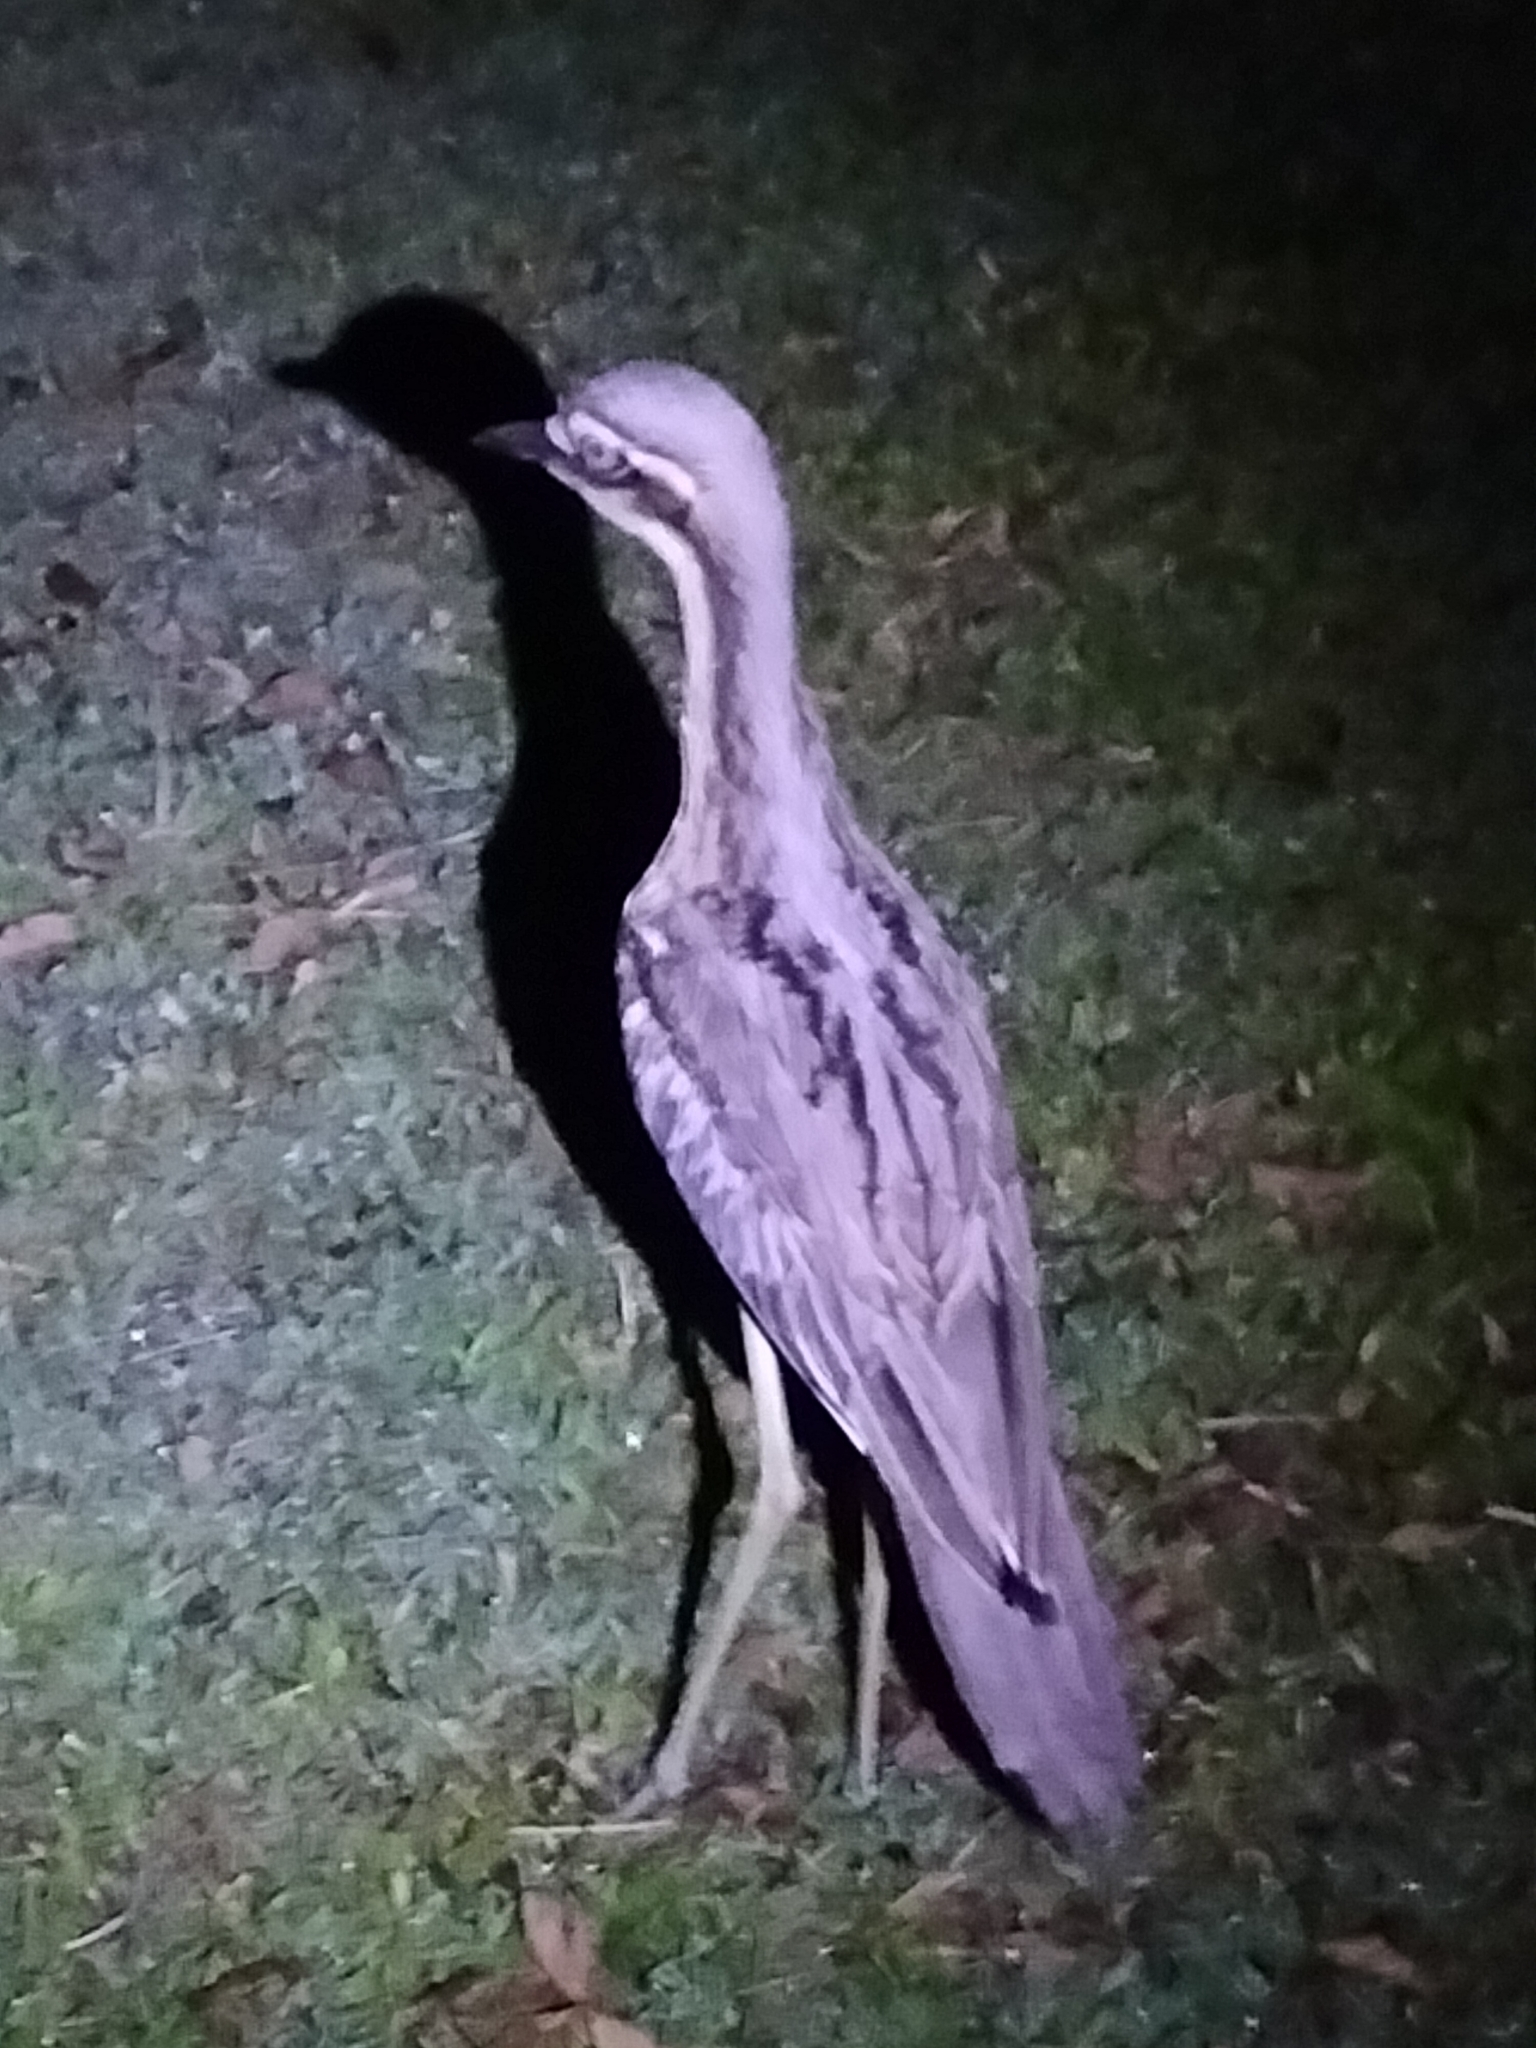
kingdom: Animalia
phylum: Chordata
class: Aves
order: Charadriiformes
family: Burhinidae
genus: Burhinus
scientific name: Burhinus grallarius
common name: Bush stone-curlew
